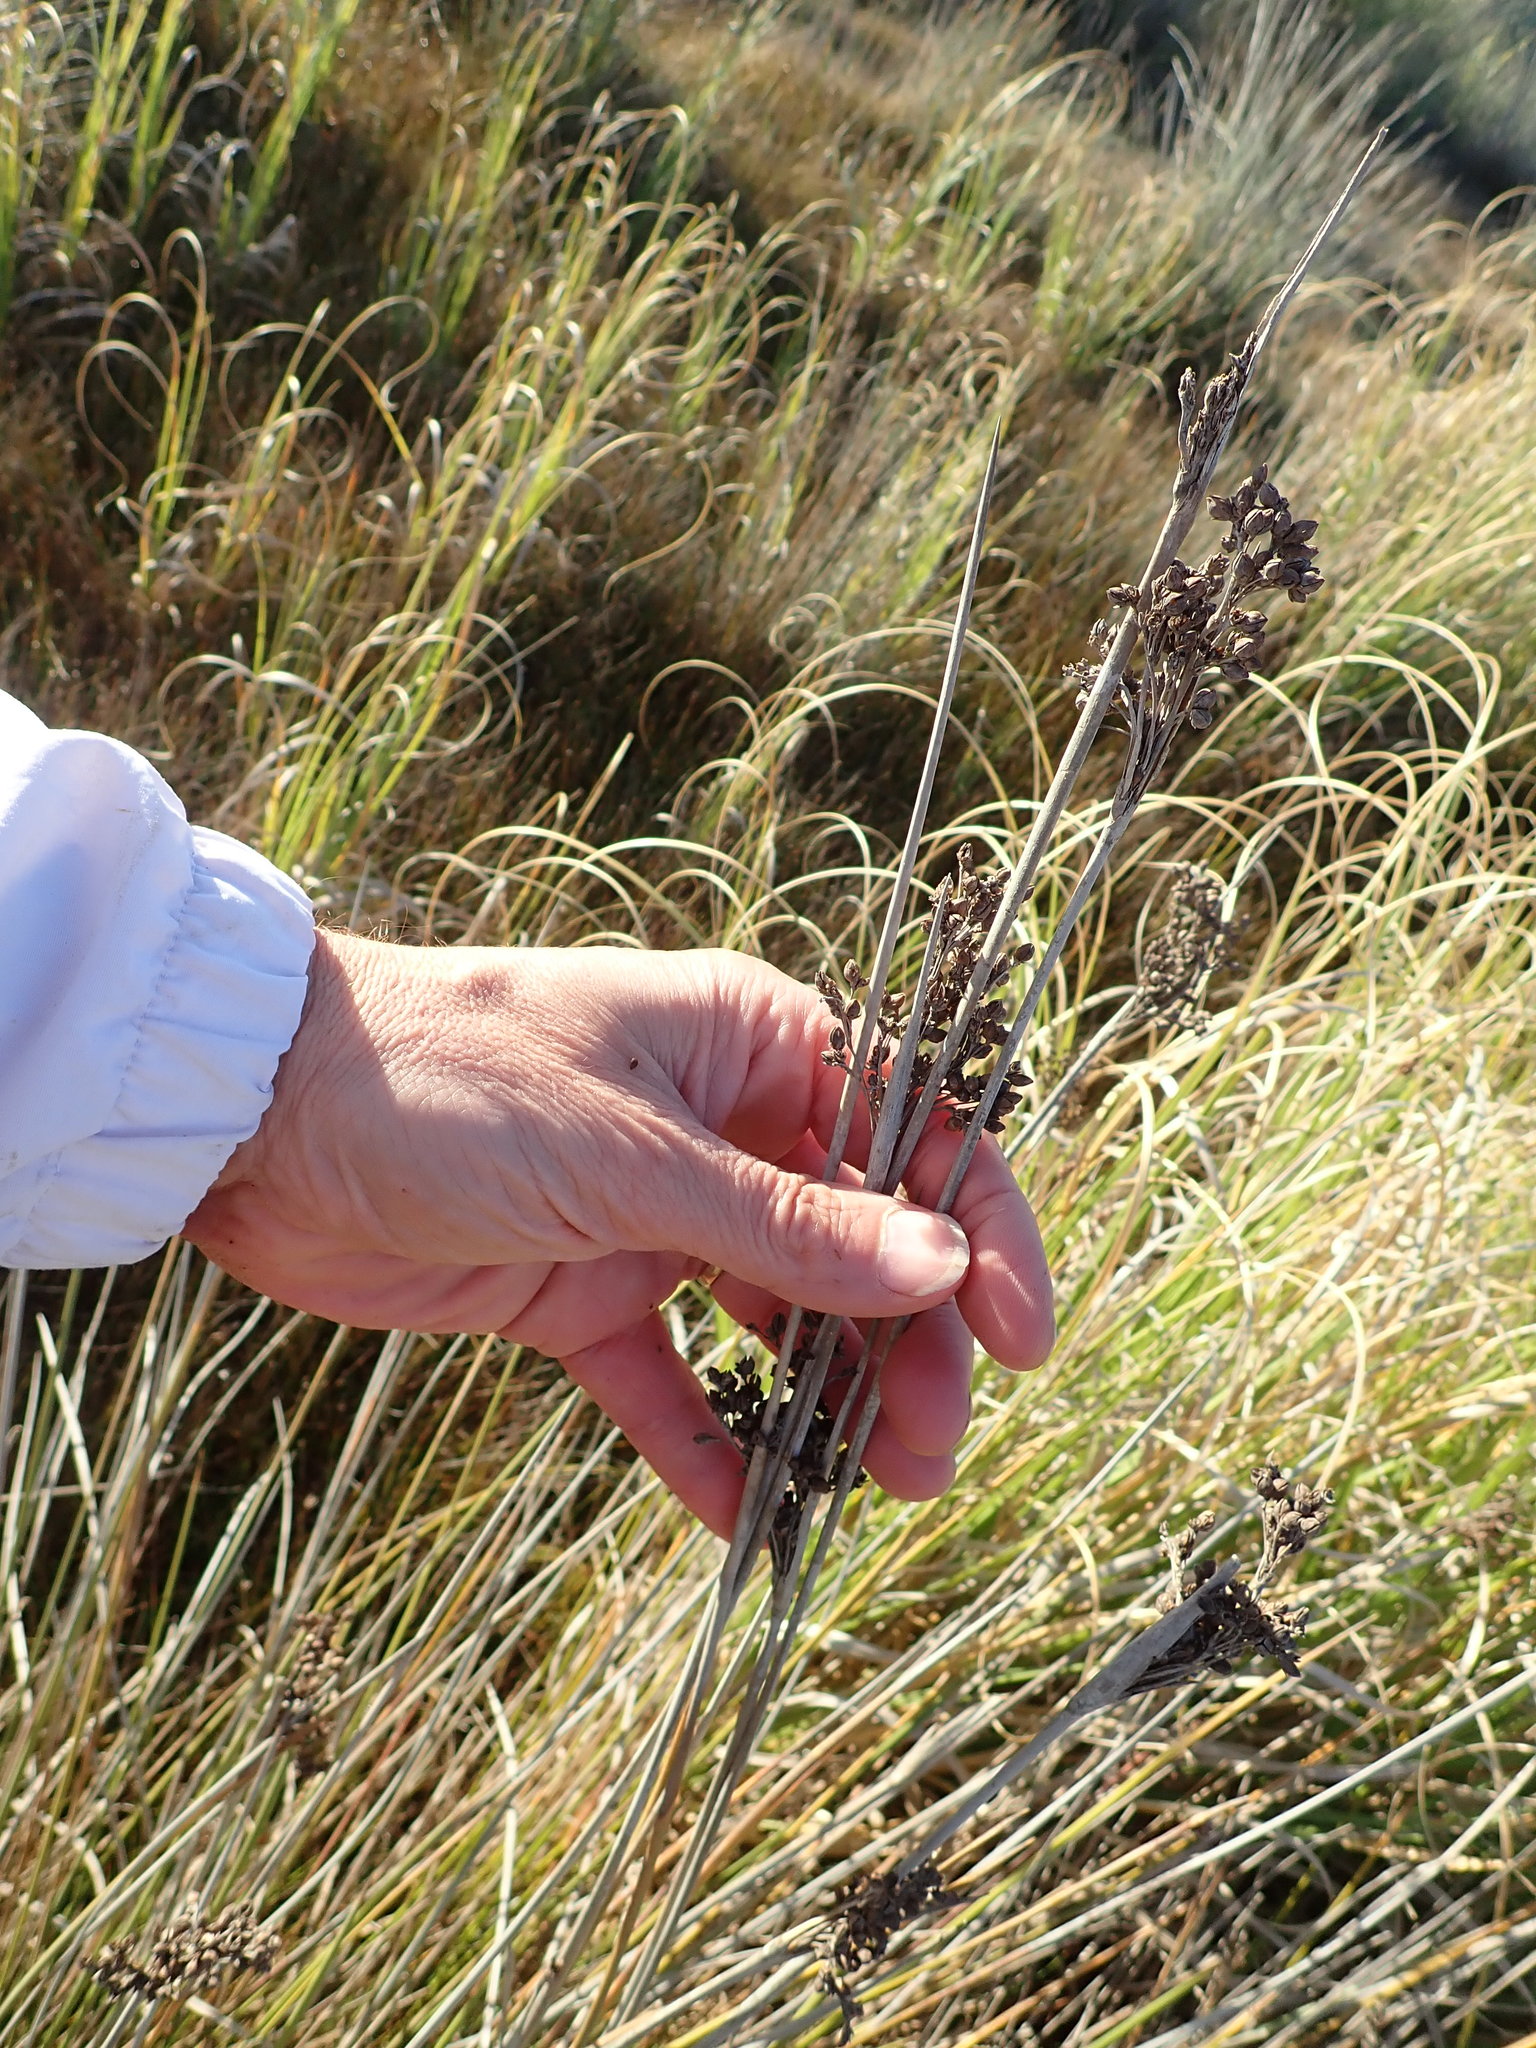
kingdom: Plantae
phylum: Tracheophyta
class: Liliopsida
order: Poales
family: Juncaceae
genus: Juncus
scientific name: Juncus acutus
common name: Sharp rush
